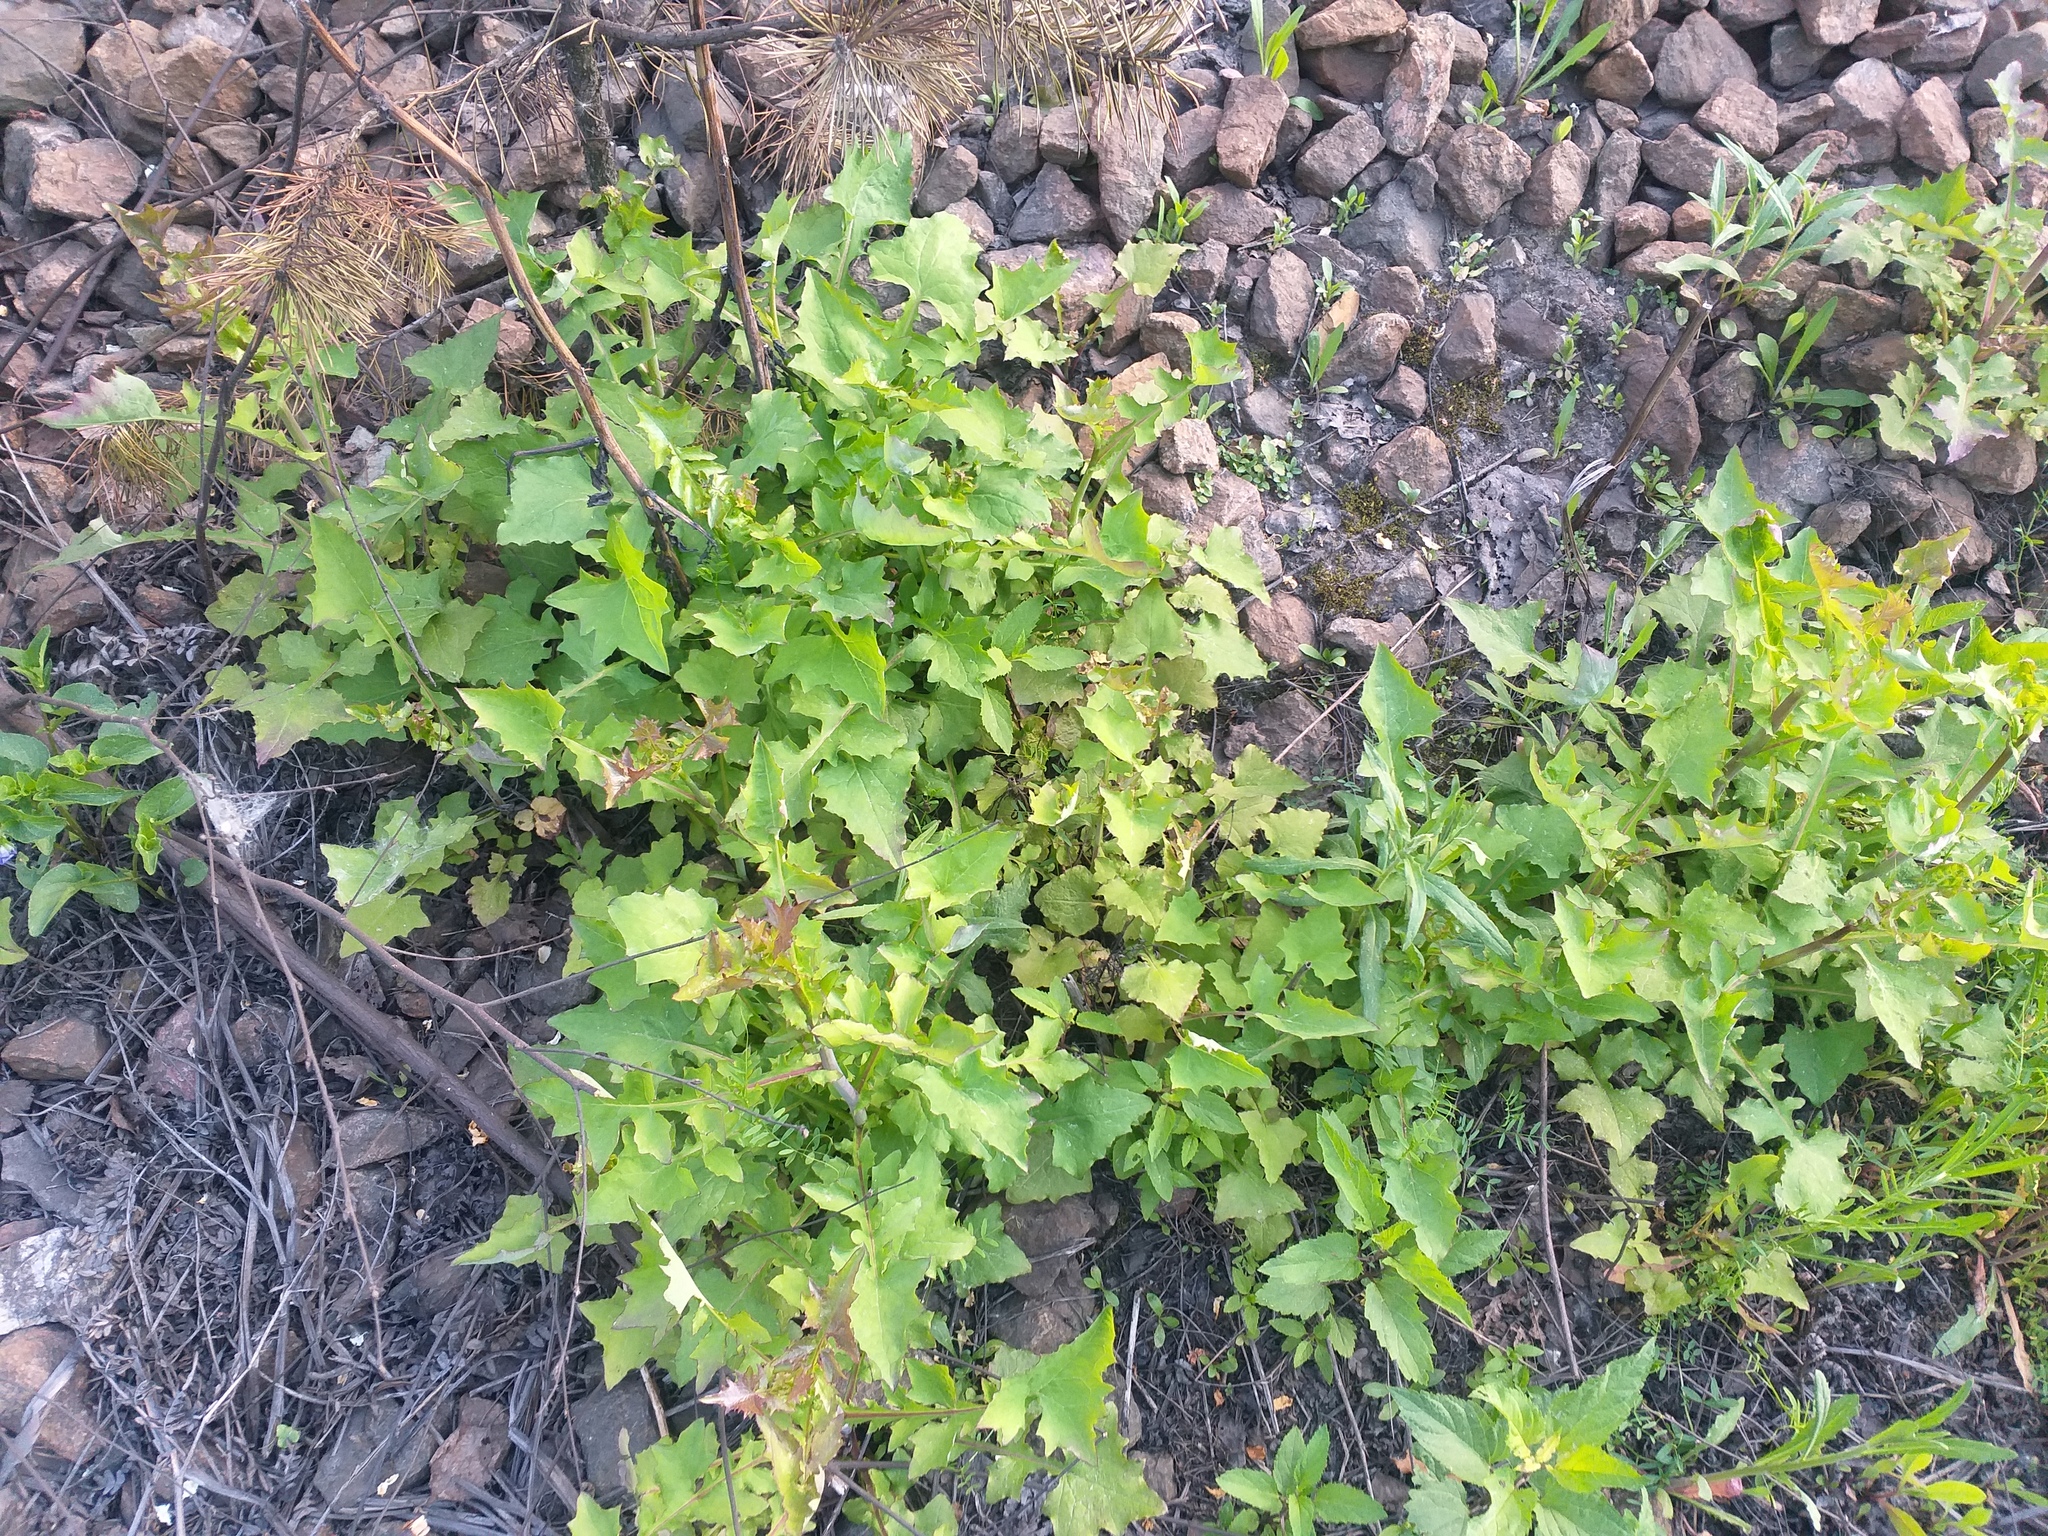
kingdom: Plantae
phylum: Tracheophyta
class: Magnoliopsida
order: Asterales
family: Asteraceae
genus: Mycelis
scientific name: Mycelis muralis
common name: Wall lettuce
